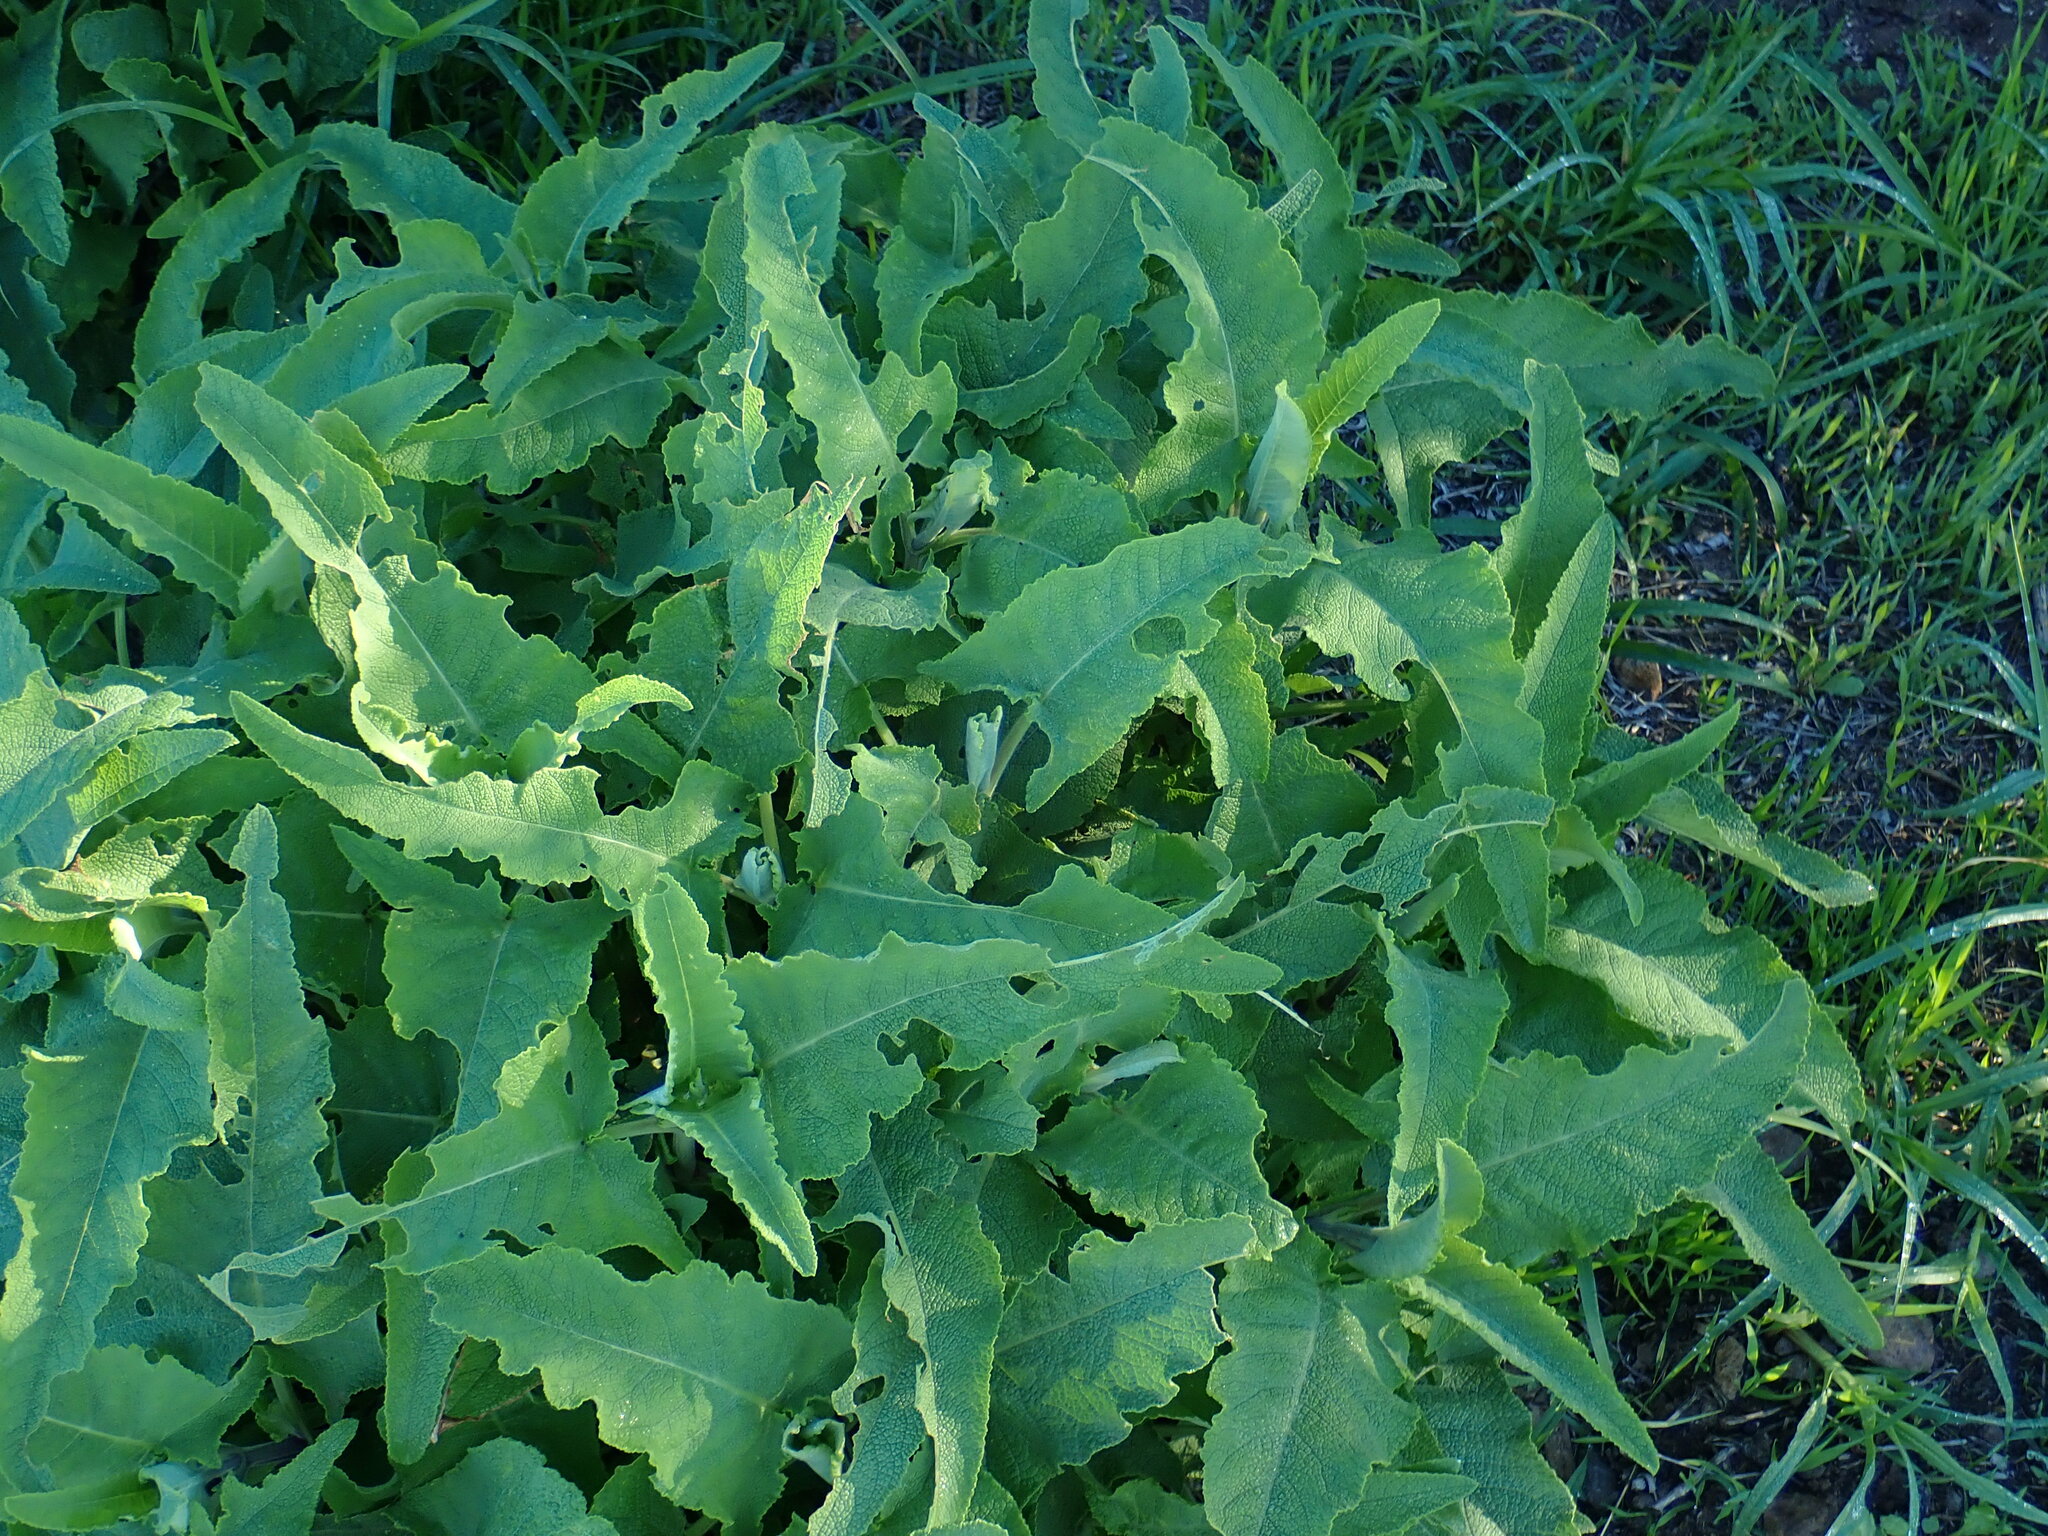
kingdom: Plantae
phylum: Tracheophyta
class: Magnoliopsida
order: Lamiales
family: Lamiaceae
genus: Salvia
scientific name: Salvia canariensis
